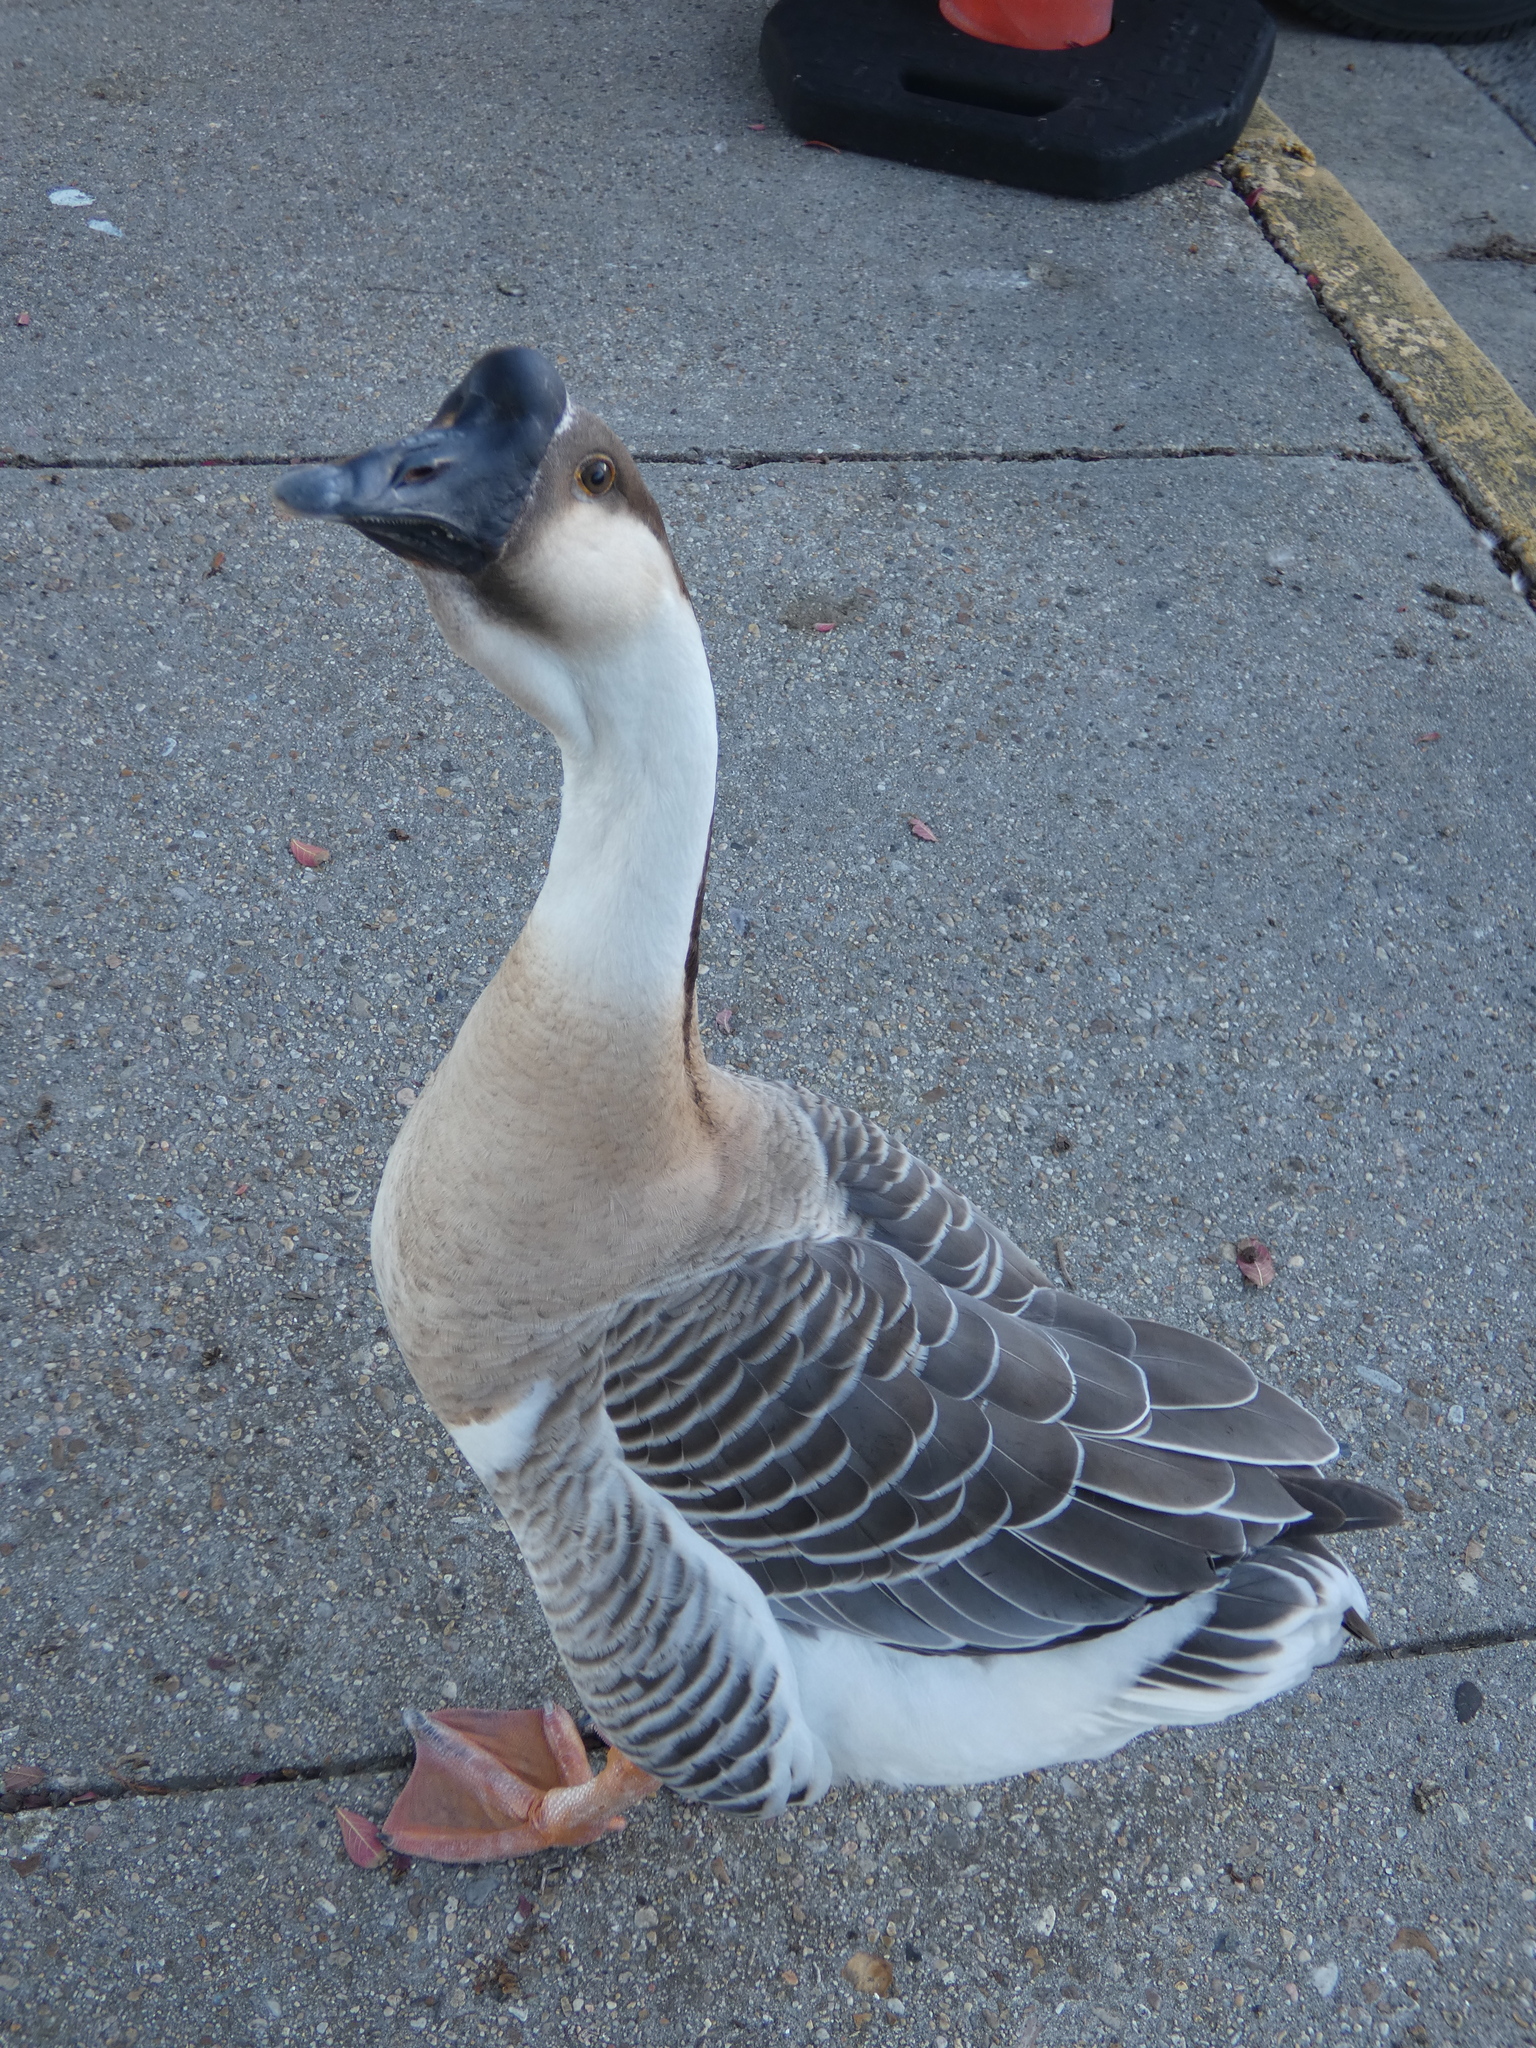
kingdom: Animalia
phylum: Chordata
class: Aves
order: Anseriformes
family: Anatidae
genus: Anser
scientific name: Anser cygnoides
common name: Swan goose
